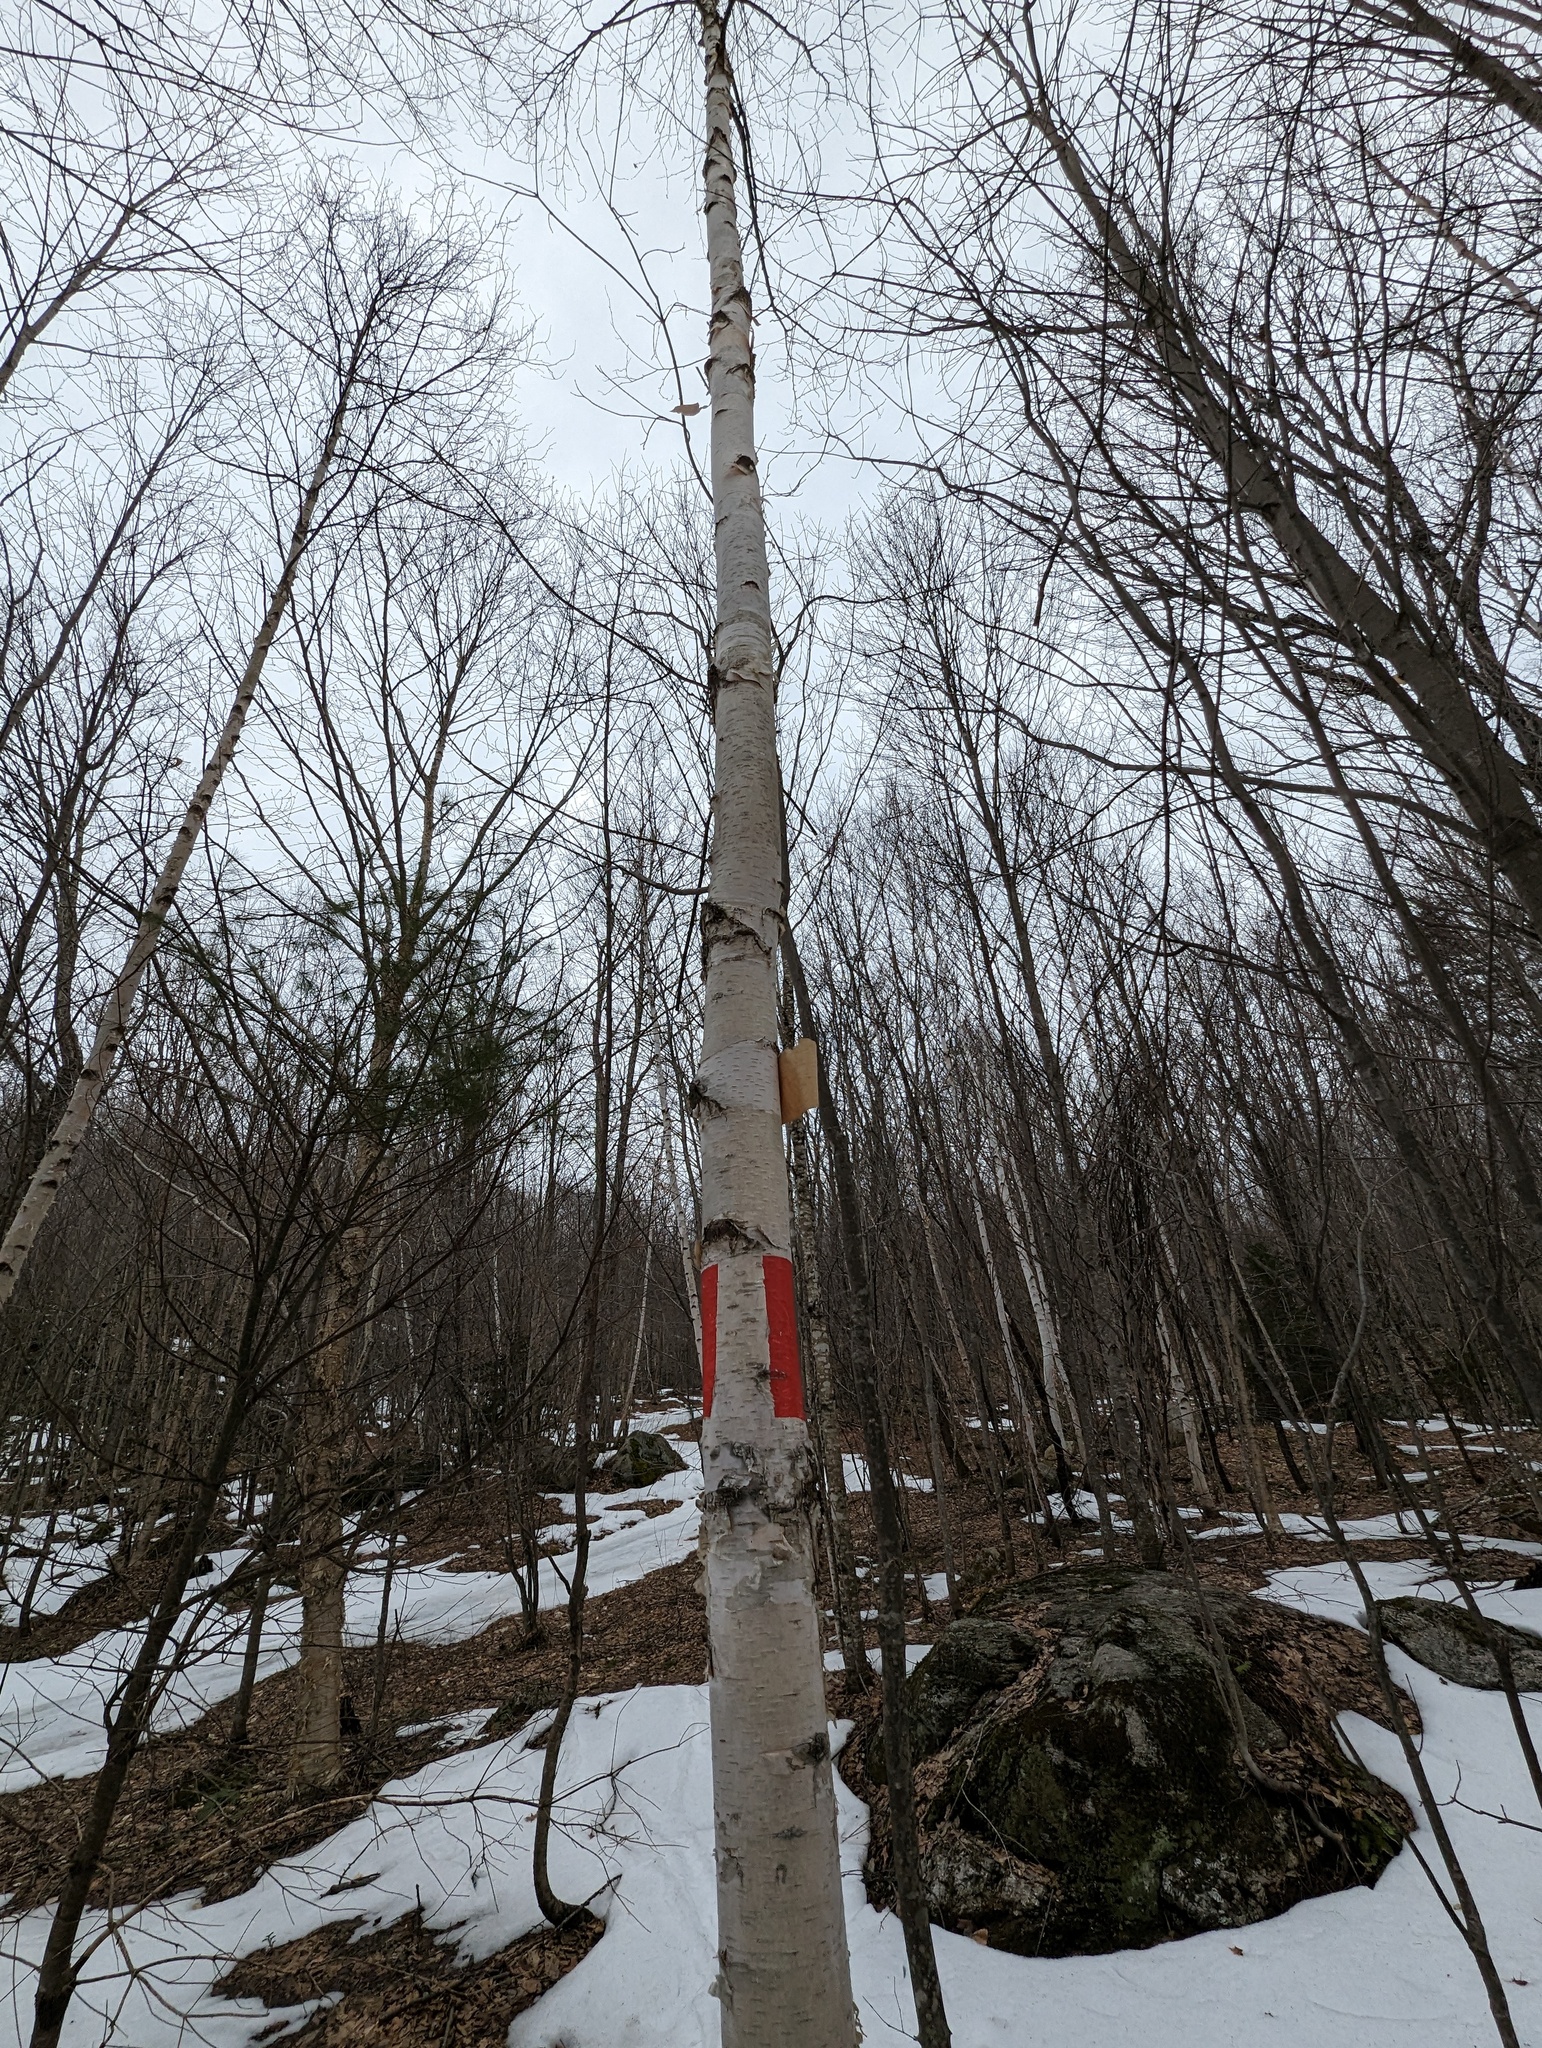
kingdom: Plantae
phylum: Tracheophyta
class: Magnoliopsida
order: Fagales
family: Betulaceae
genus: Betula
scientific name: Betula papyrifera
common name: Paper birch
